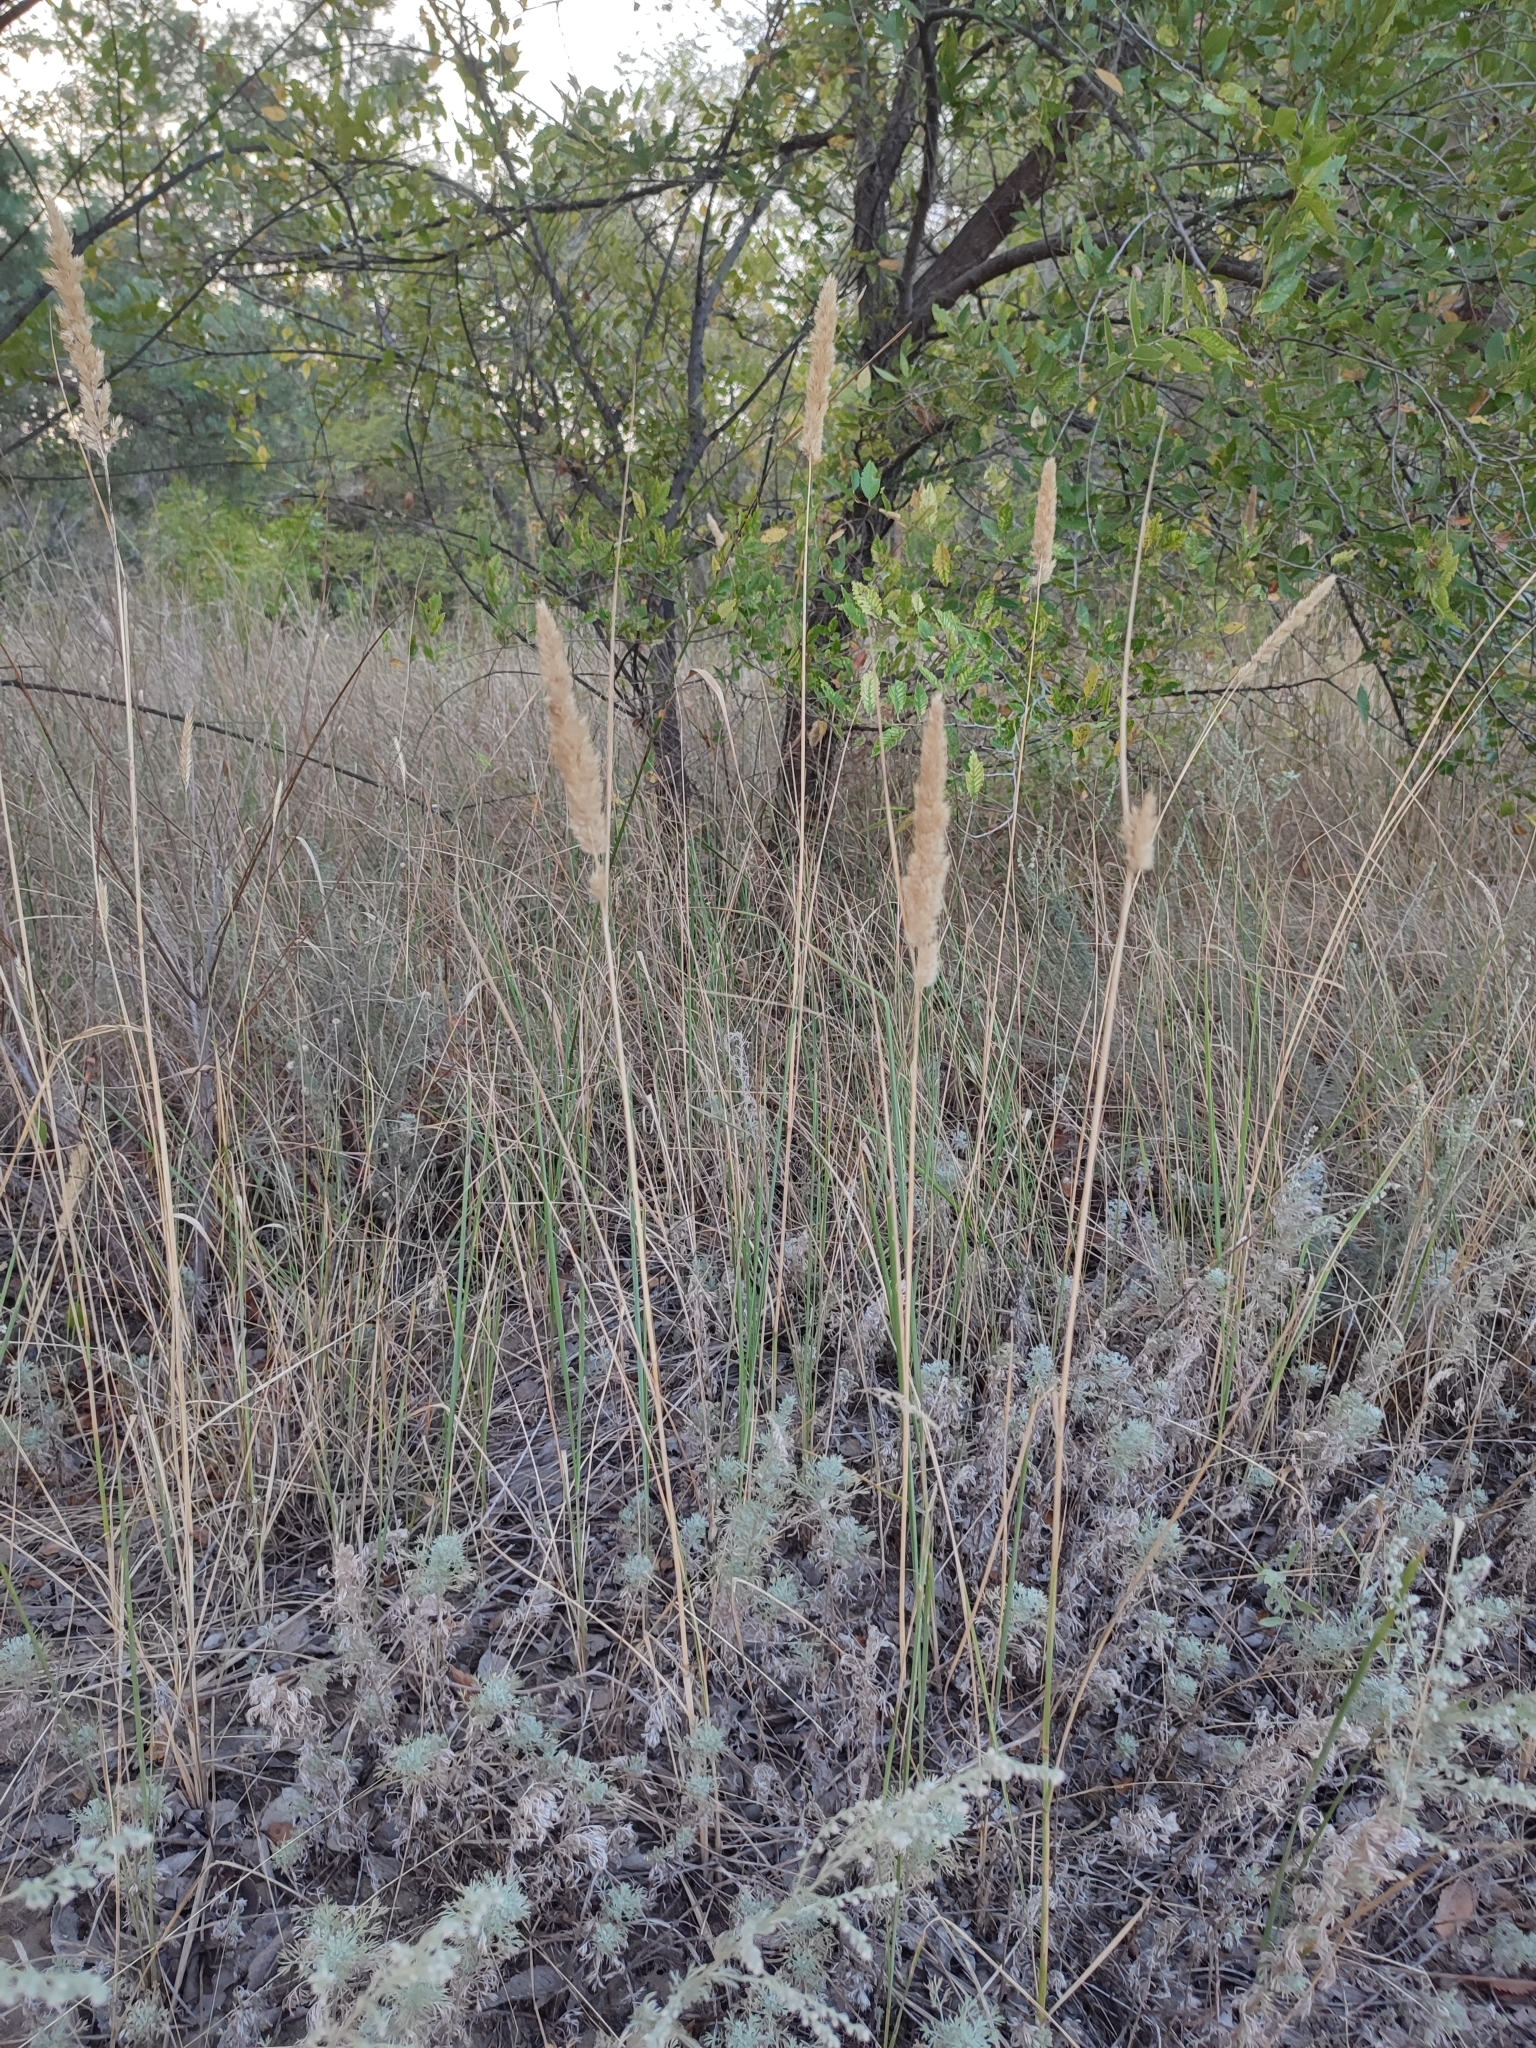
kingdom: Plantae
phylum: Tracheophyta
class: Liliopsida
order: Poales
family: Poaceae
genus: Calamagrostis
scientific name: Calamagrostis epigejos
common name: Wood small-reed
